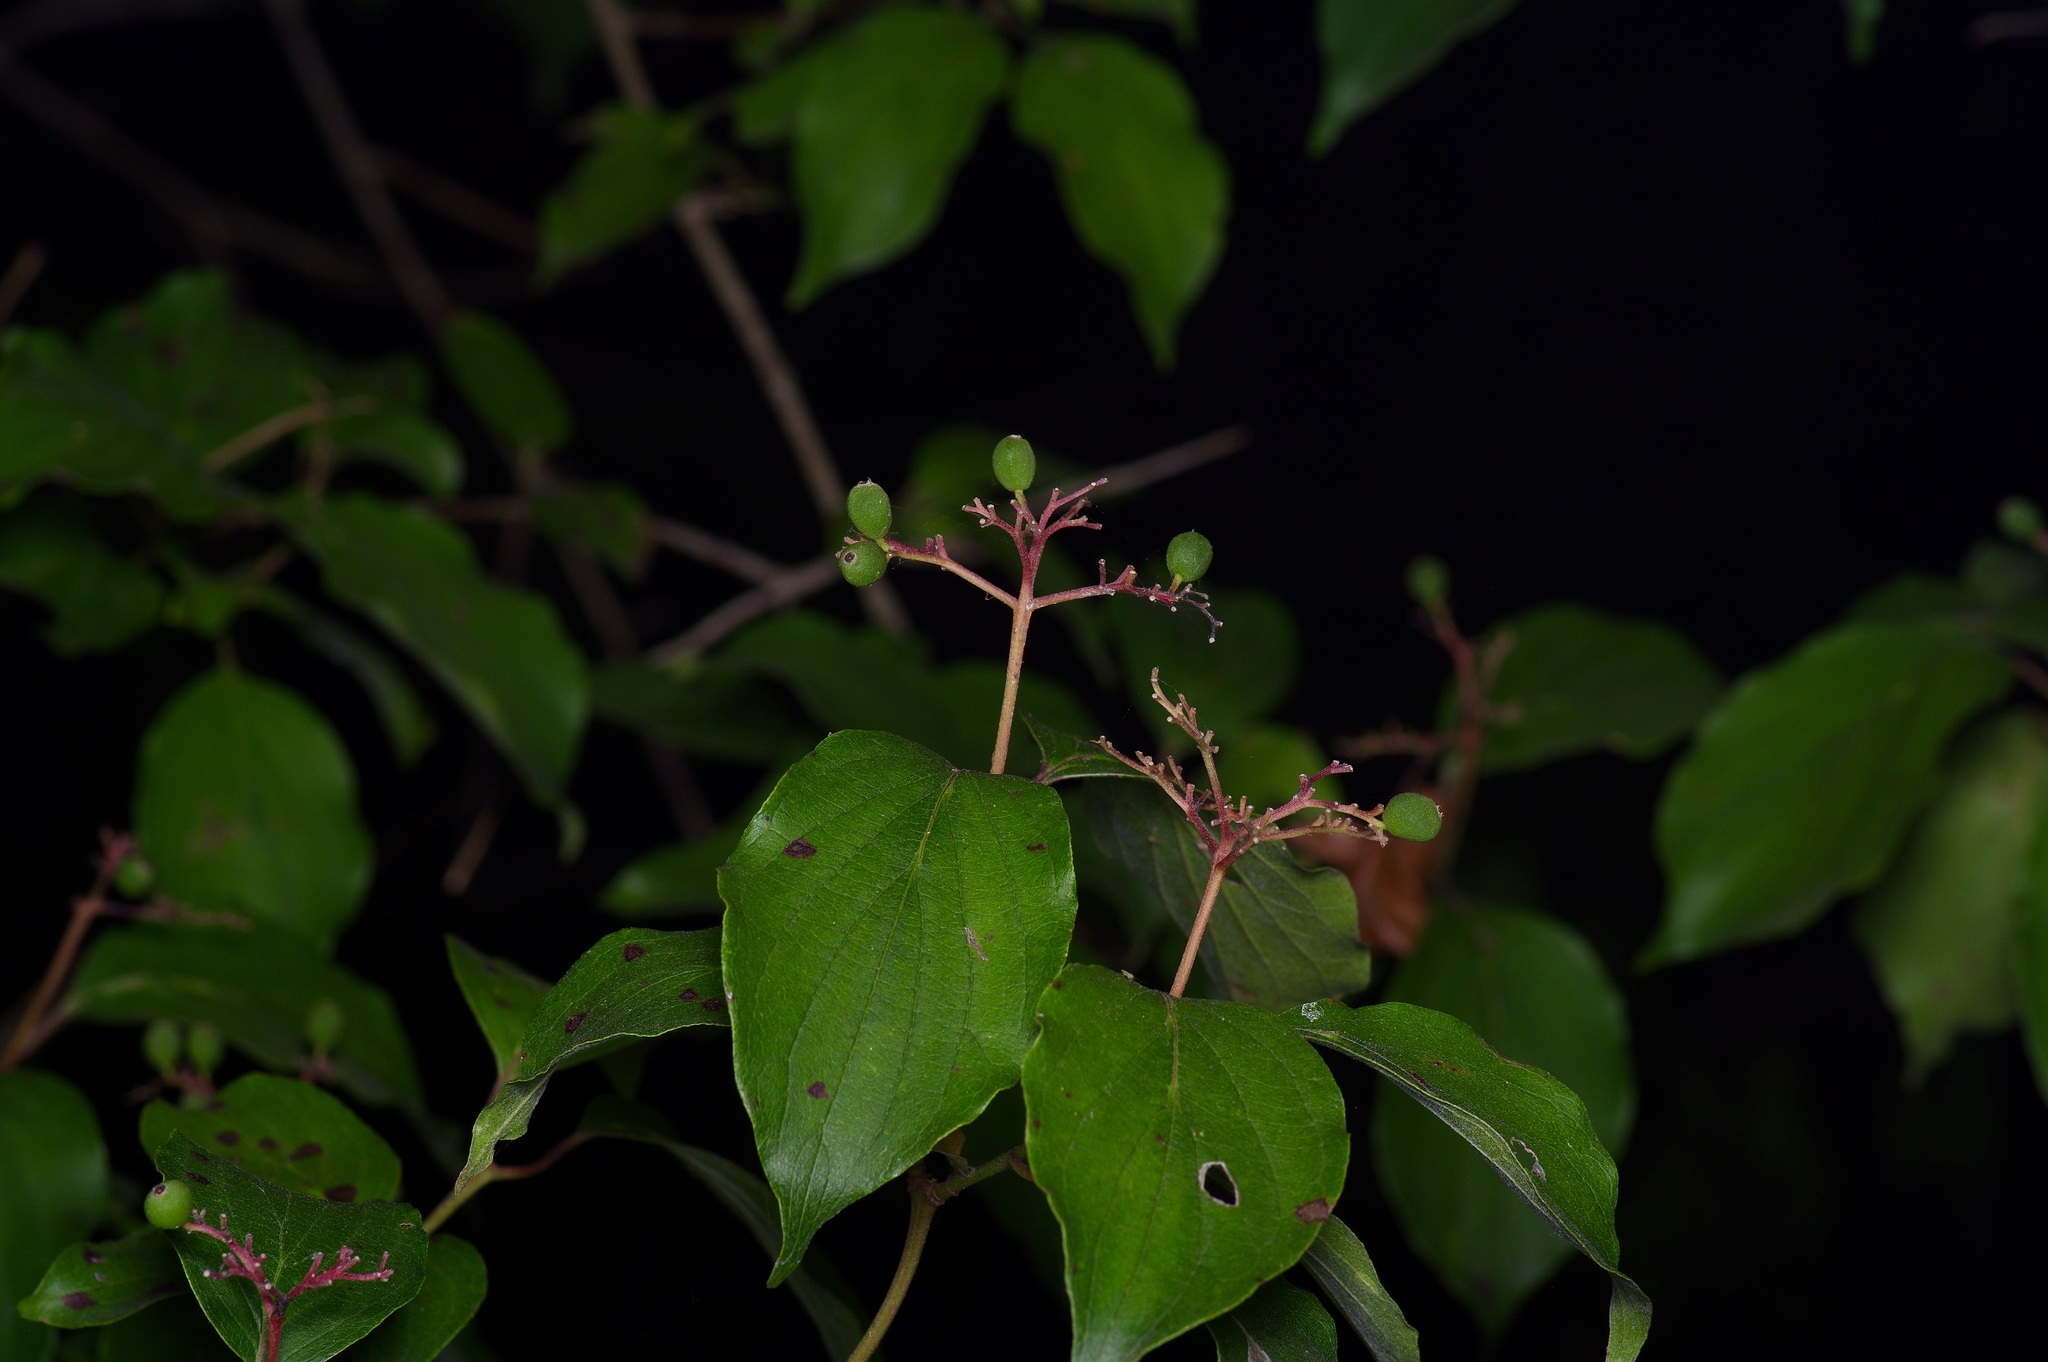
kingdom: Plantae
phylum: Tracheophyta
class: Magnoliopsida
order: Cornales
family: Cornaceae
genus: Cornus
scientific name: Cornus drummondii
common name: Rough-leaf dogwood
